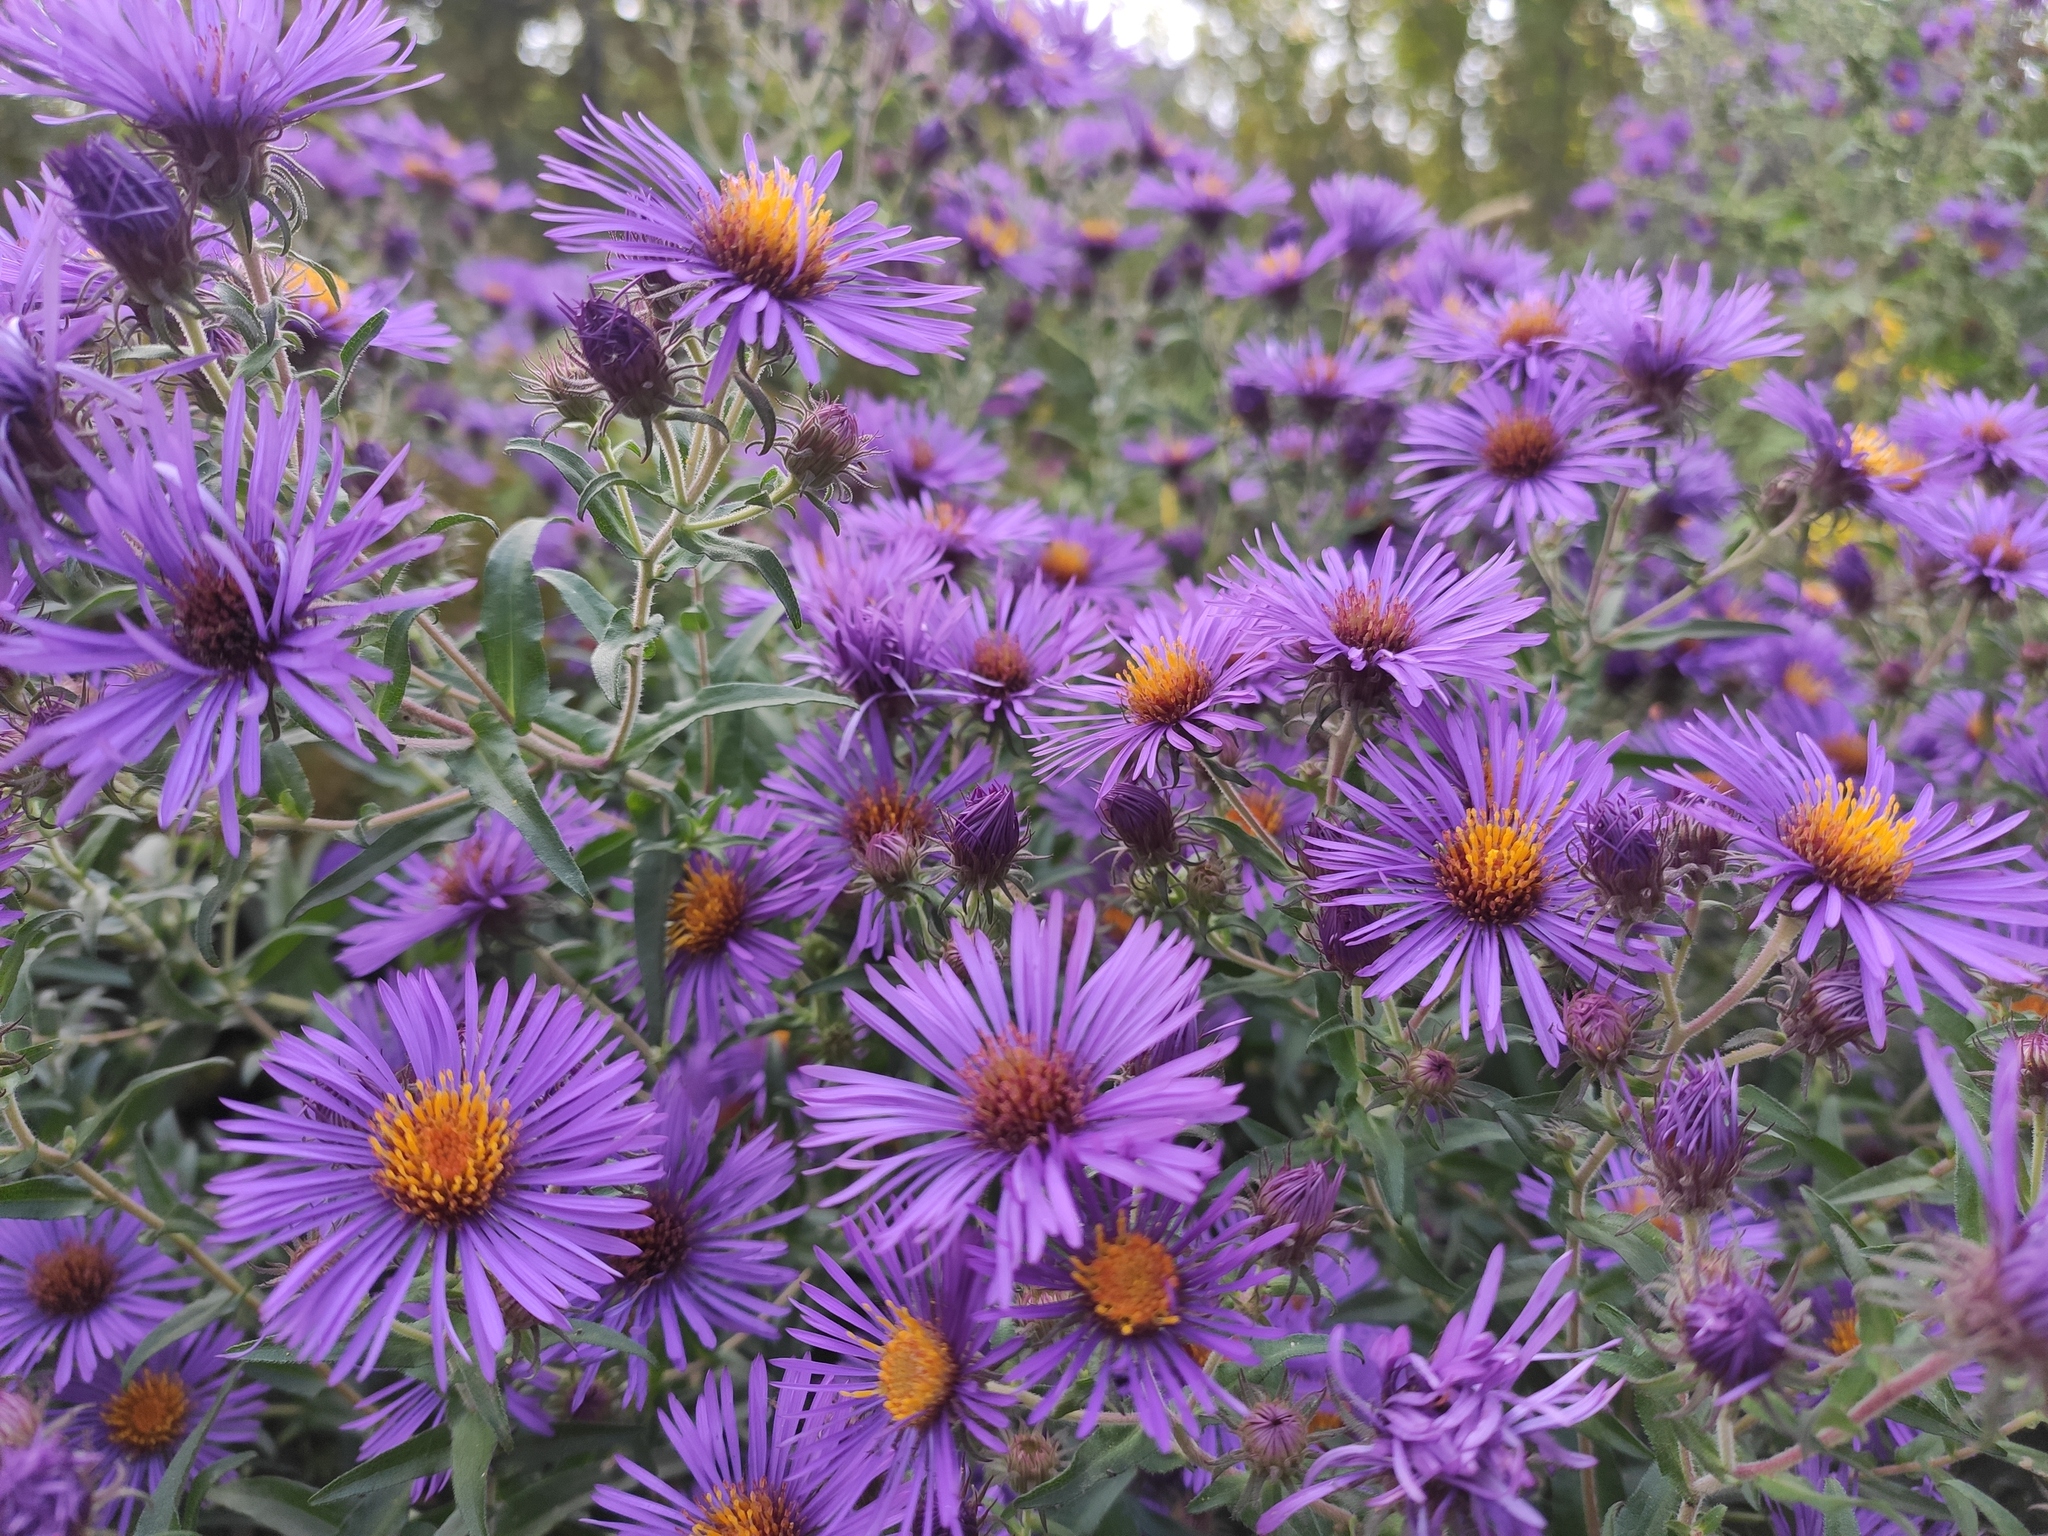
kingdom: Plantae
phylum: Tracheophyta
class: Magnoliopsida
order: Asterales
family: Asteraceae
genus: Symphyotrichum
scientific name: Symphyotrichum novae-angliae
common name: Michaelmas daisy
